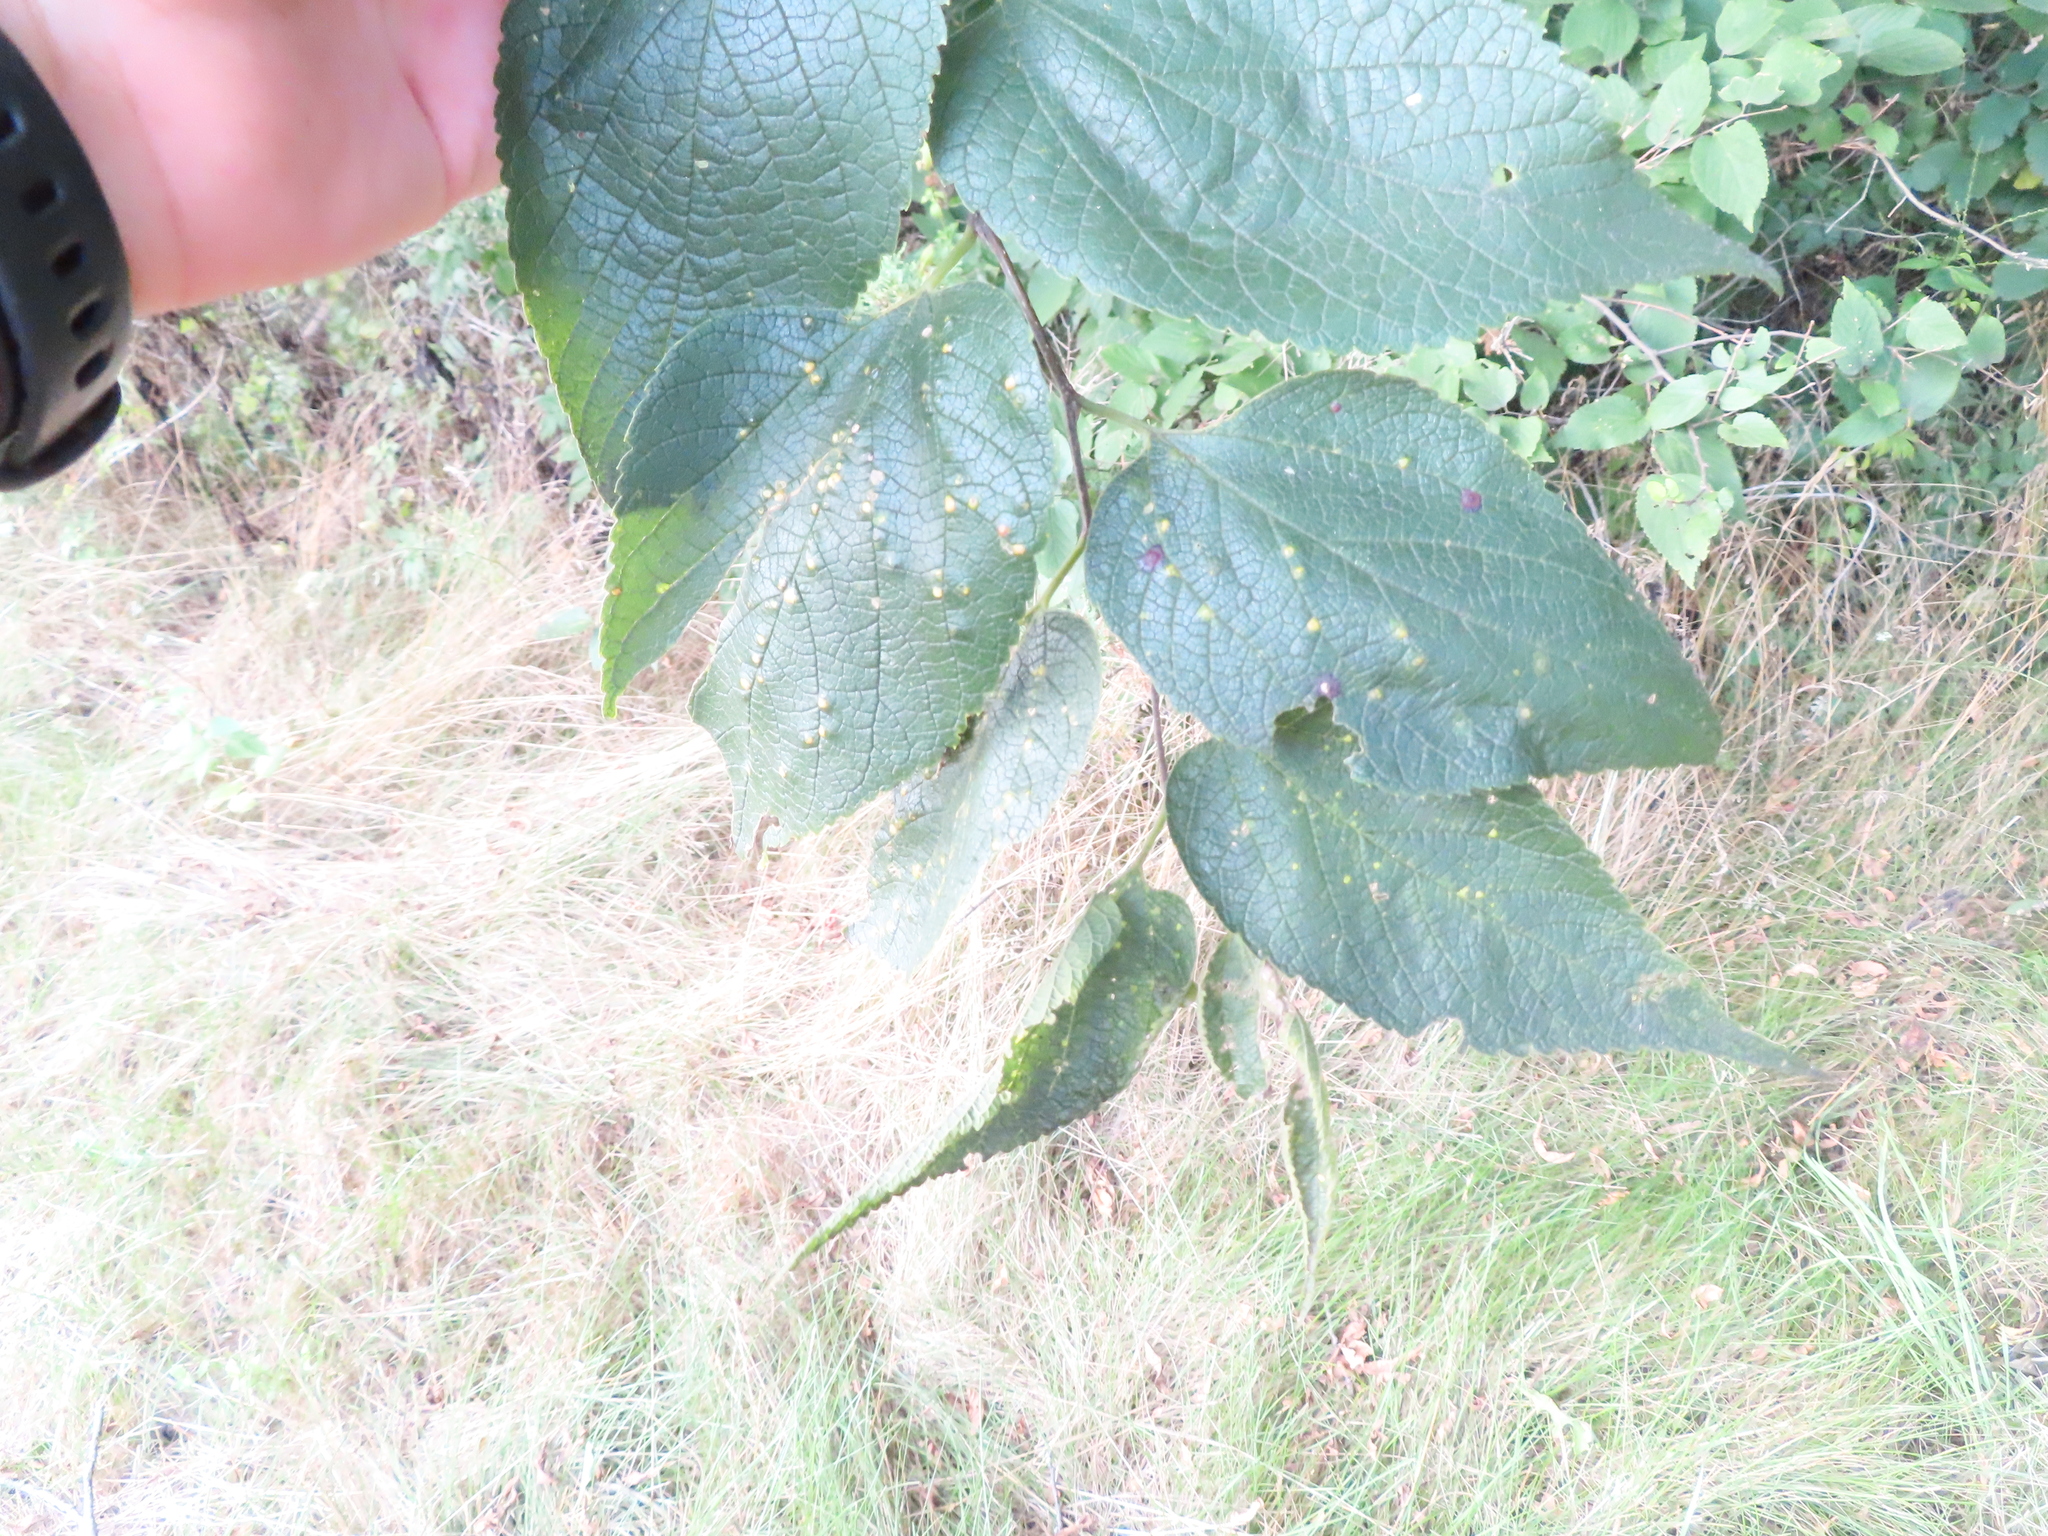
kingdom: Animalia
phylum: Arthropoda
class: Insecta
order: Hemiptera
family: Aphalaridae
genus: Pachypsylla
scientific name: Pachypsylla celtidisvesicula
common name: Hackberry blister gall psyllid
